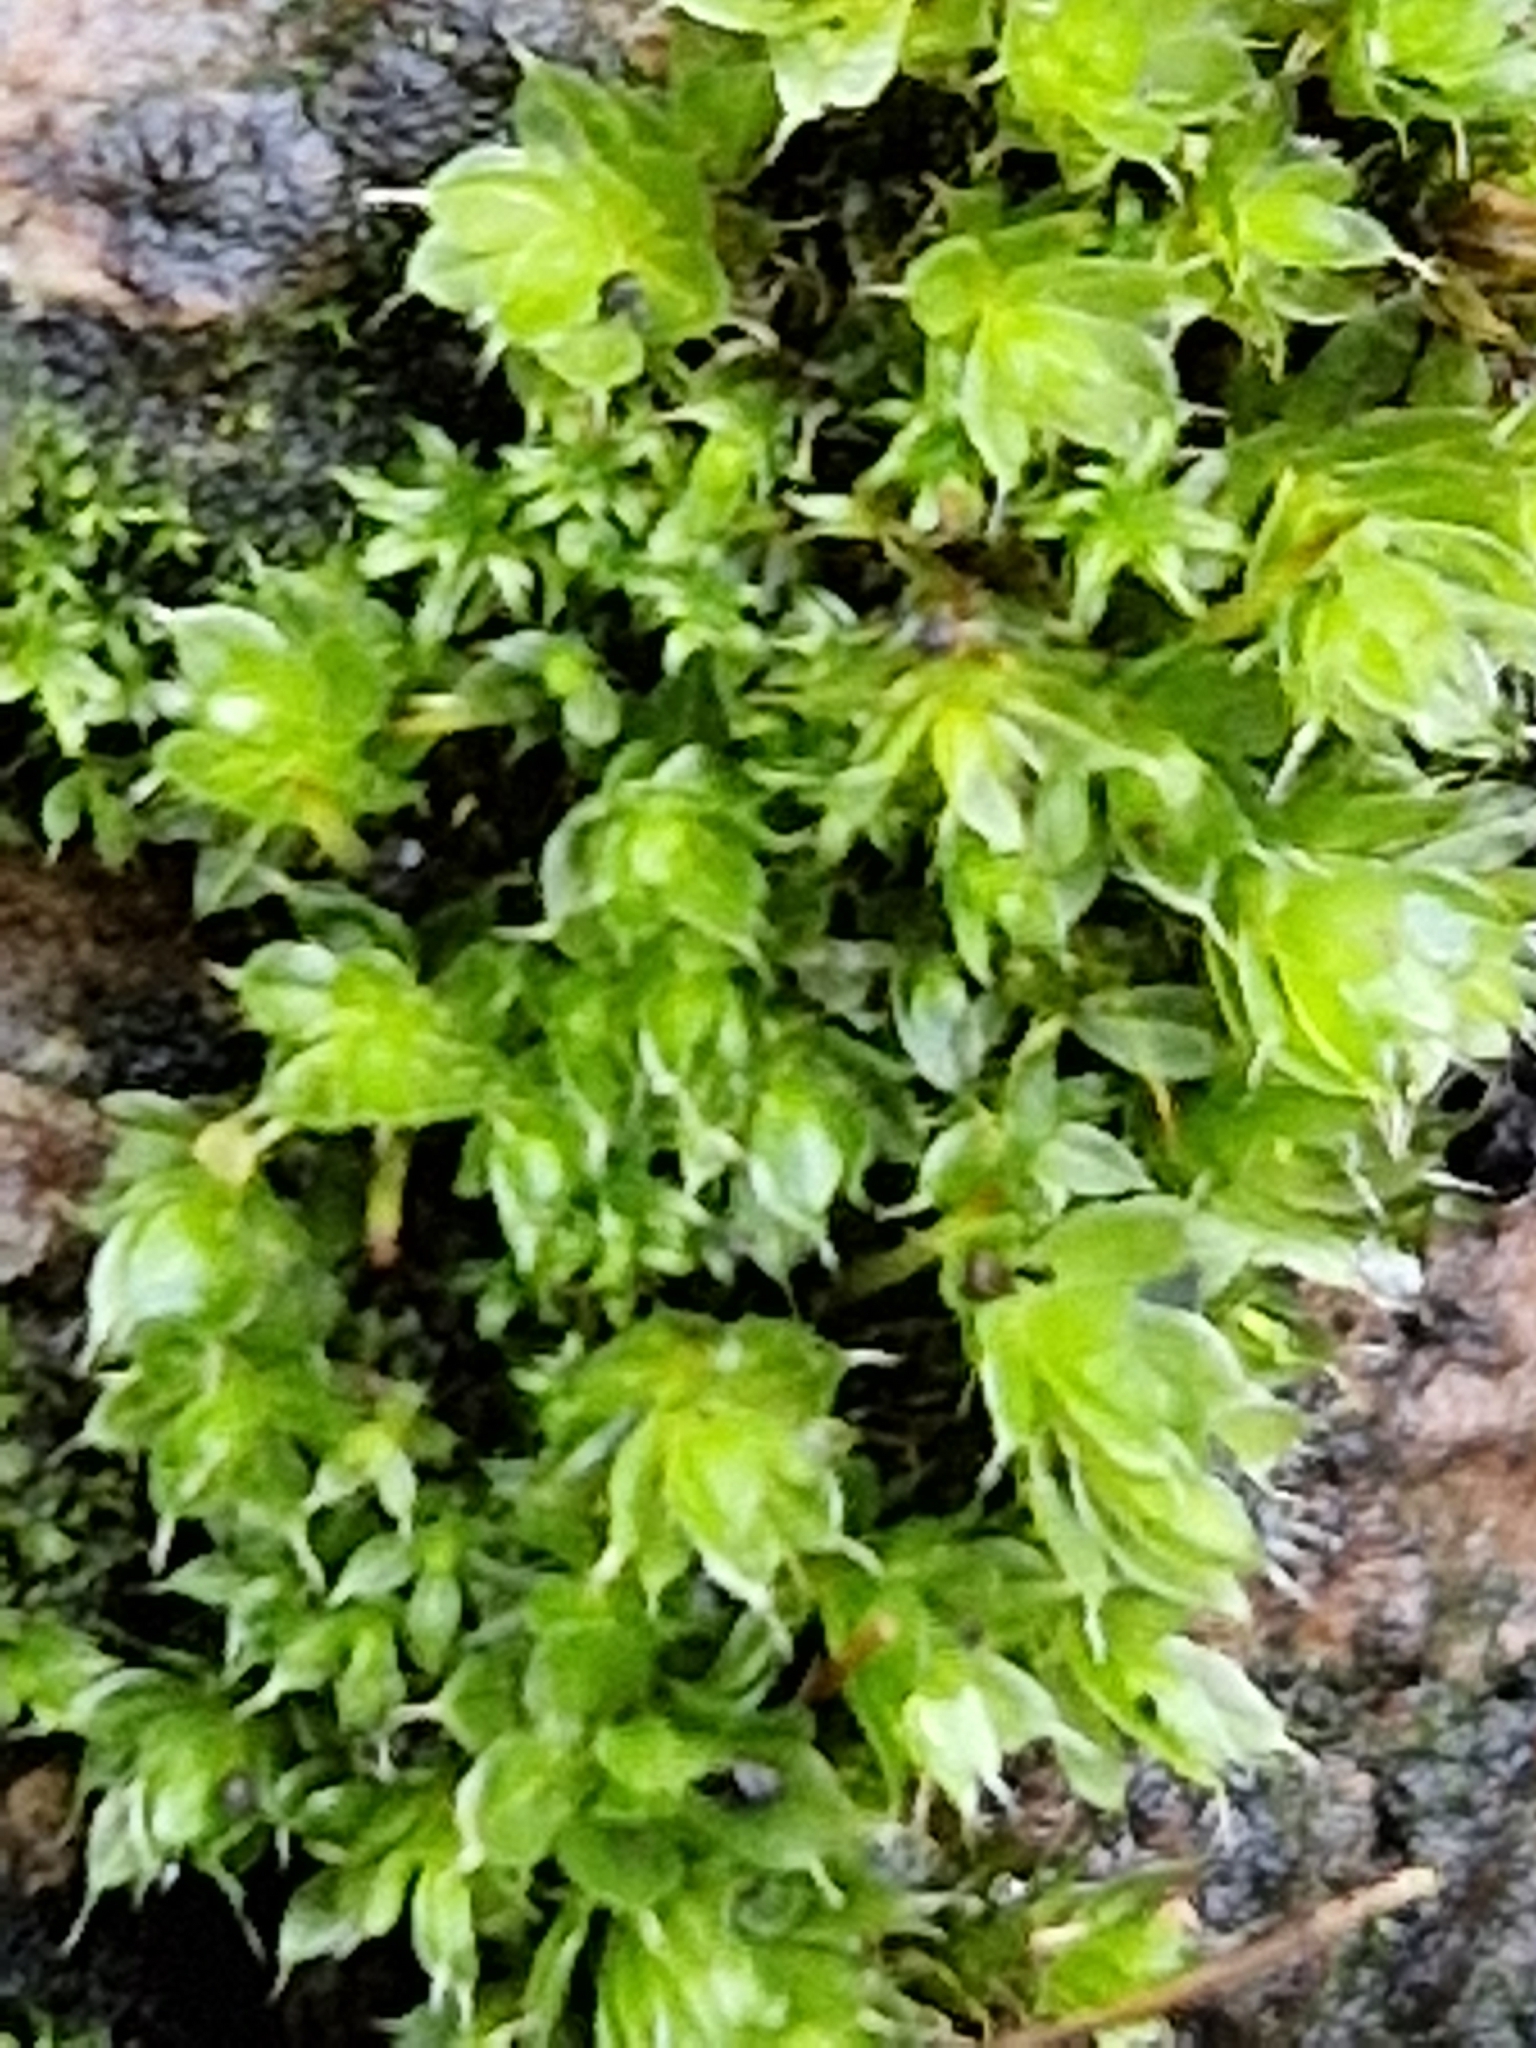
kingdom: Plantae
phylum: Bryophyta
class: Bryopsida
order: Bryales
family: Bryaceae
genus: Rosulabryum
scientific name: Rosulabryum capillare
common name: Capillary thread-moss
